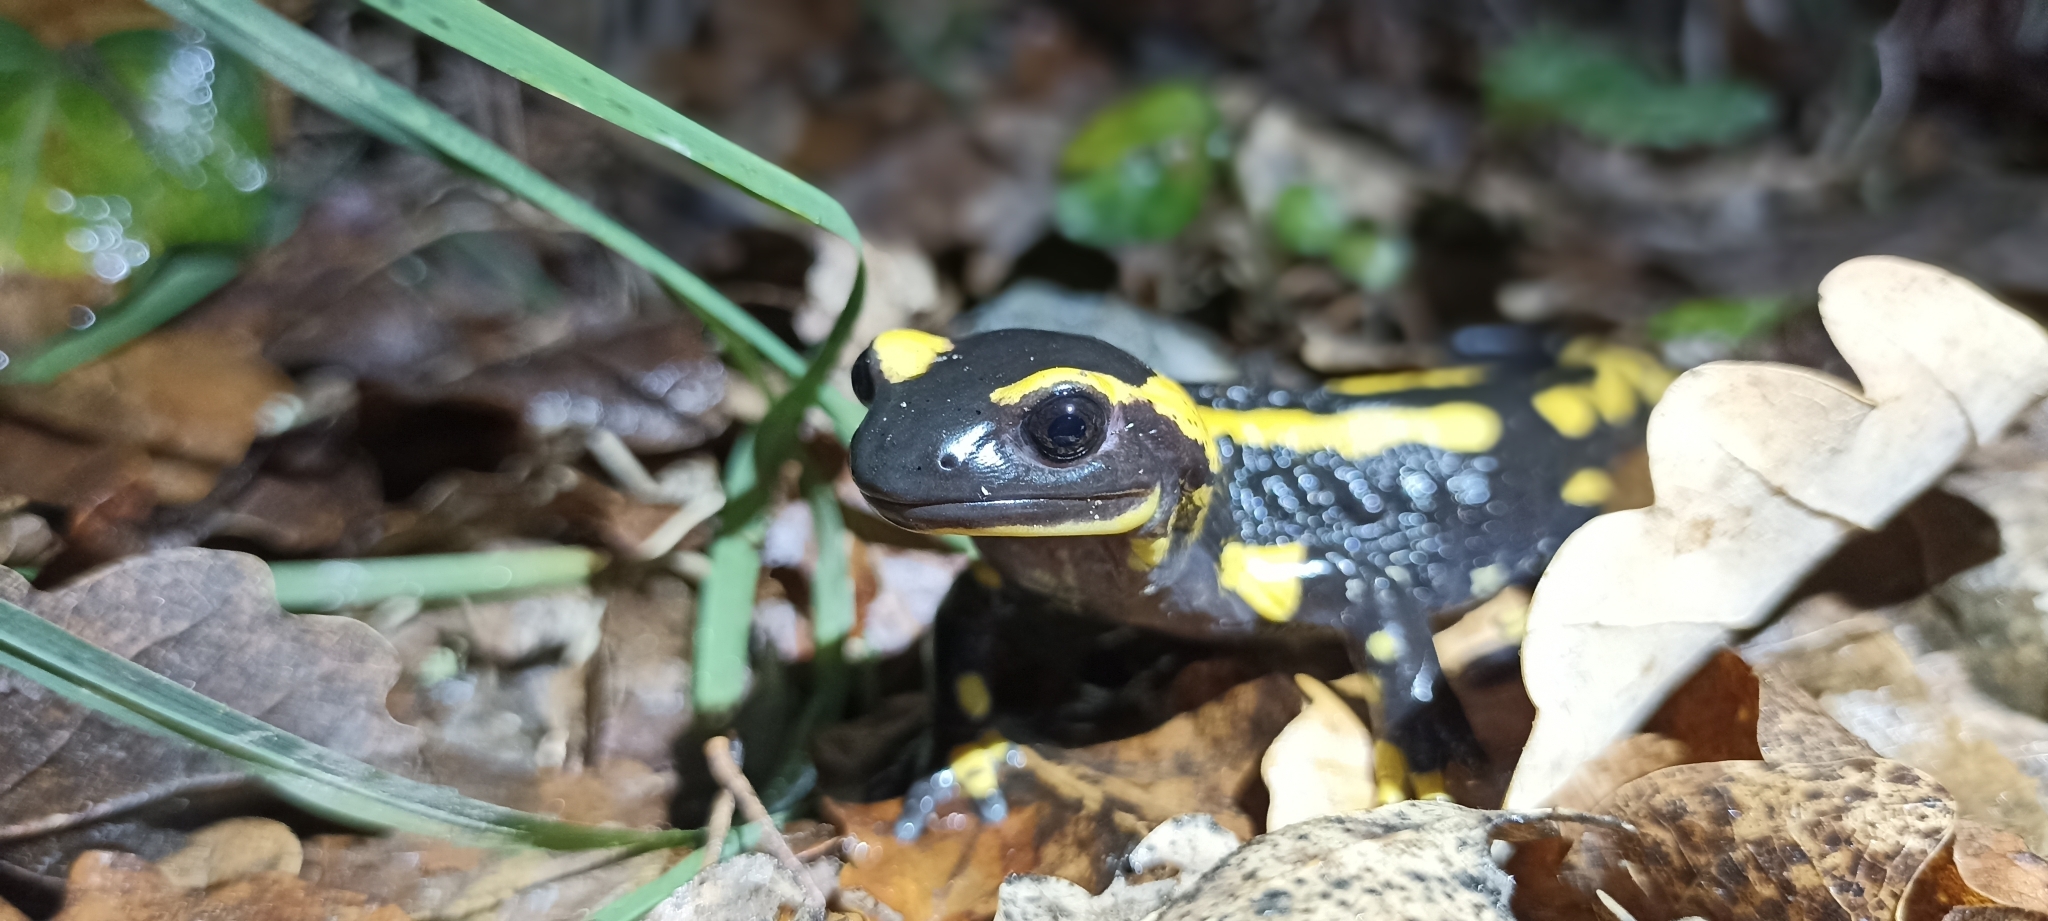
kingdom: Animalia
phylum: Chordata
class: Amphibia
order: Caudata
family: Salamandridae
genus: Salamandra
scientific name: Salamandra salamandra
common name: Fire salamander
